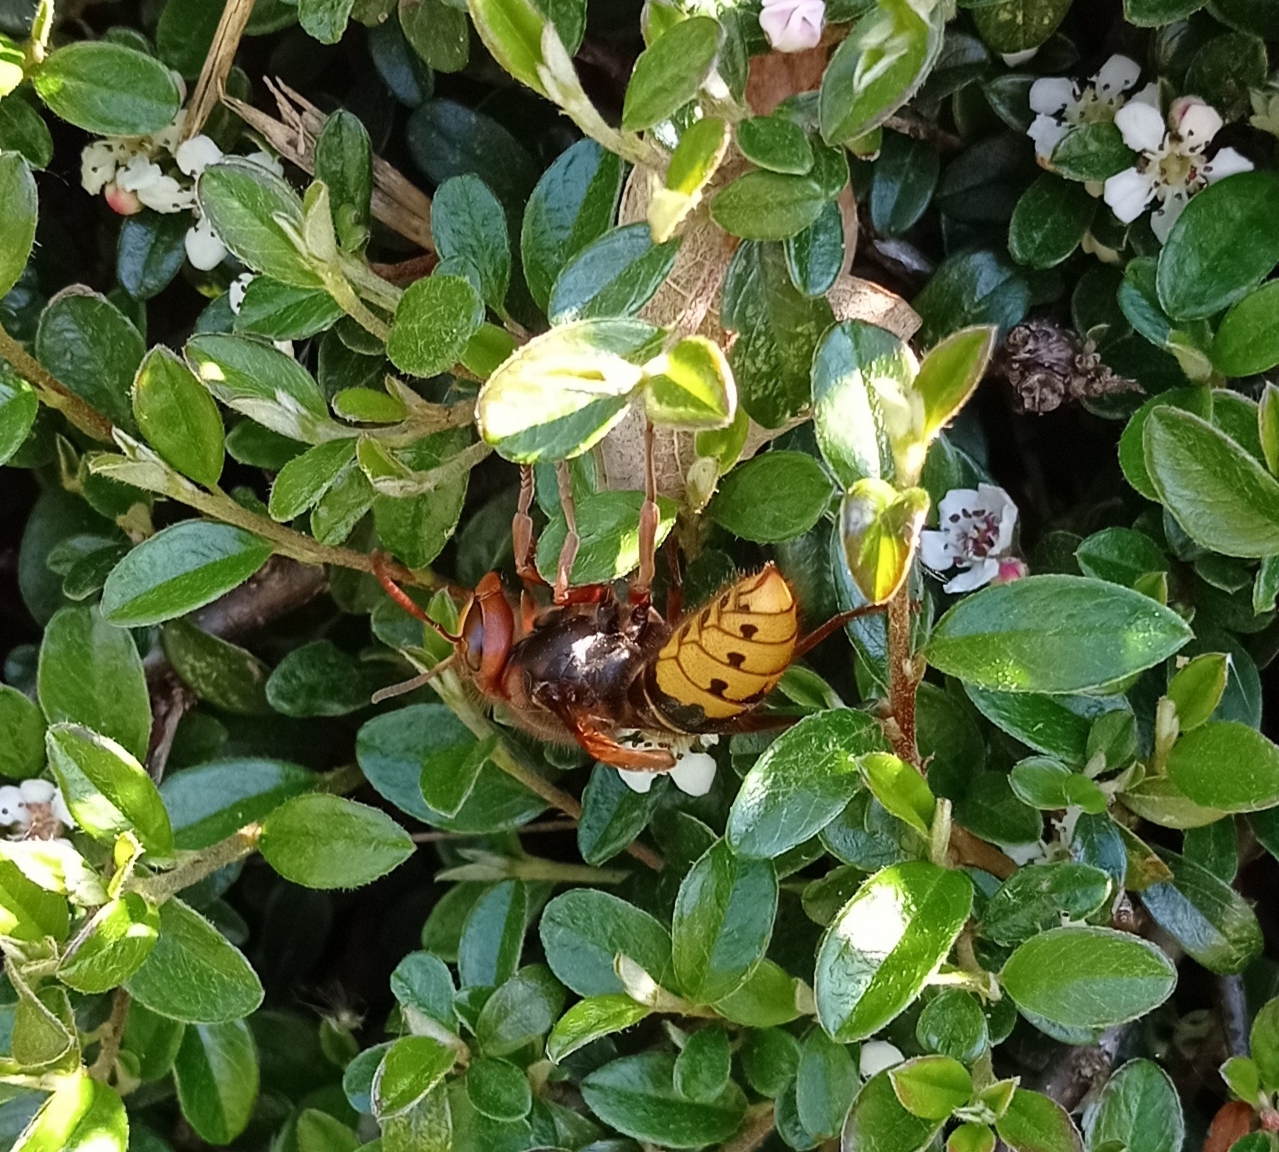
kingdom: Animalia
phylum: Arthropoda
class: Insecta
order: Hymenoptera
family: Vespidae
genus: Vespa
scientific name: Vespa crabro
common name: Hornet
